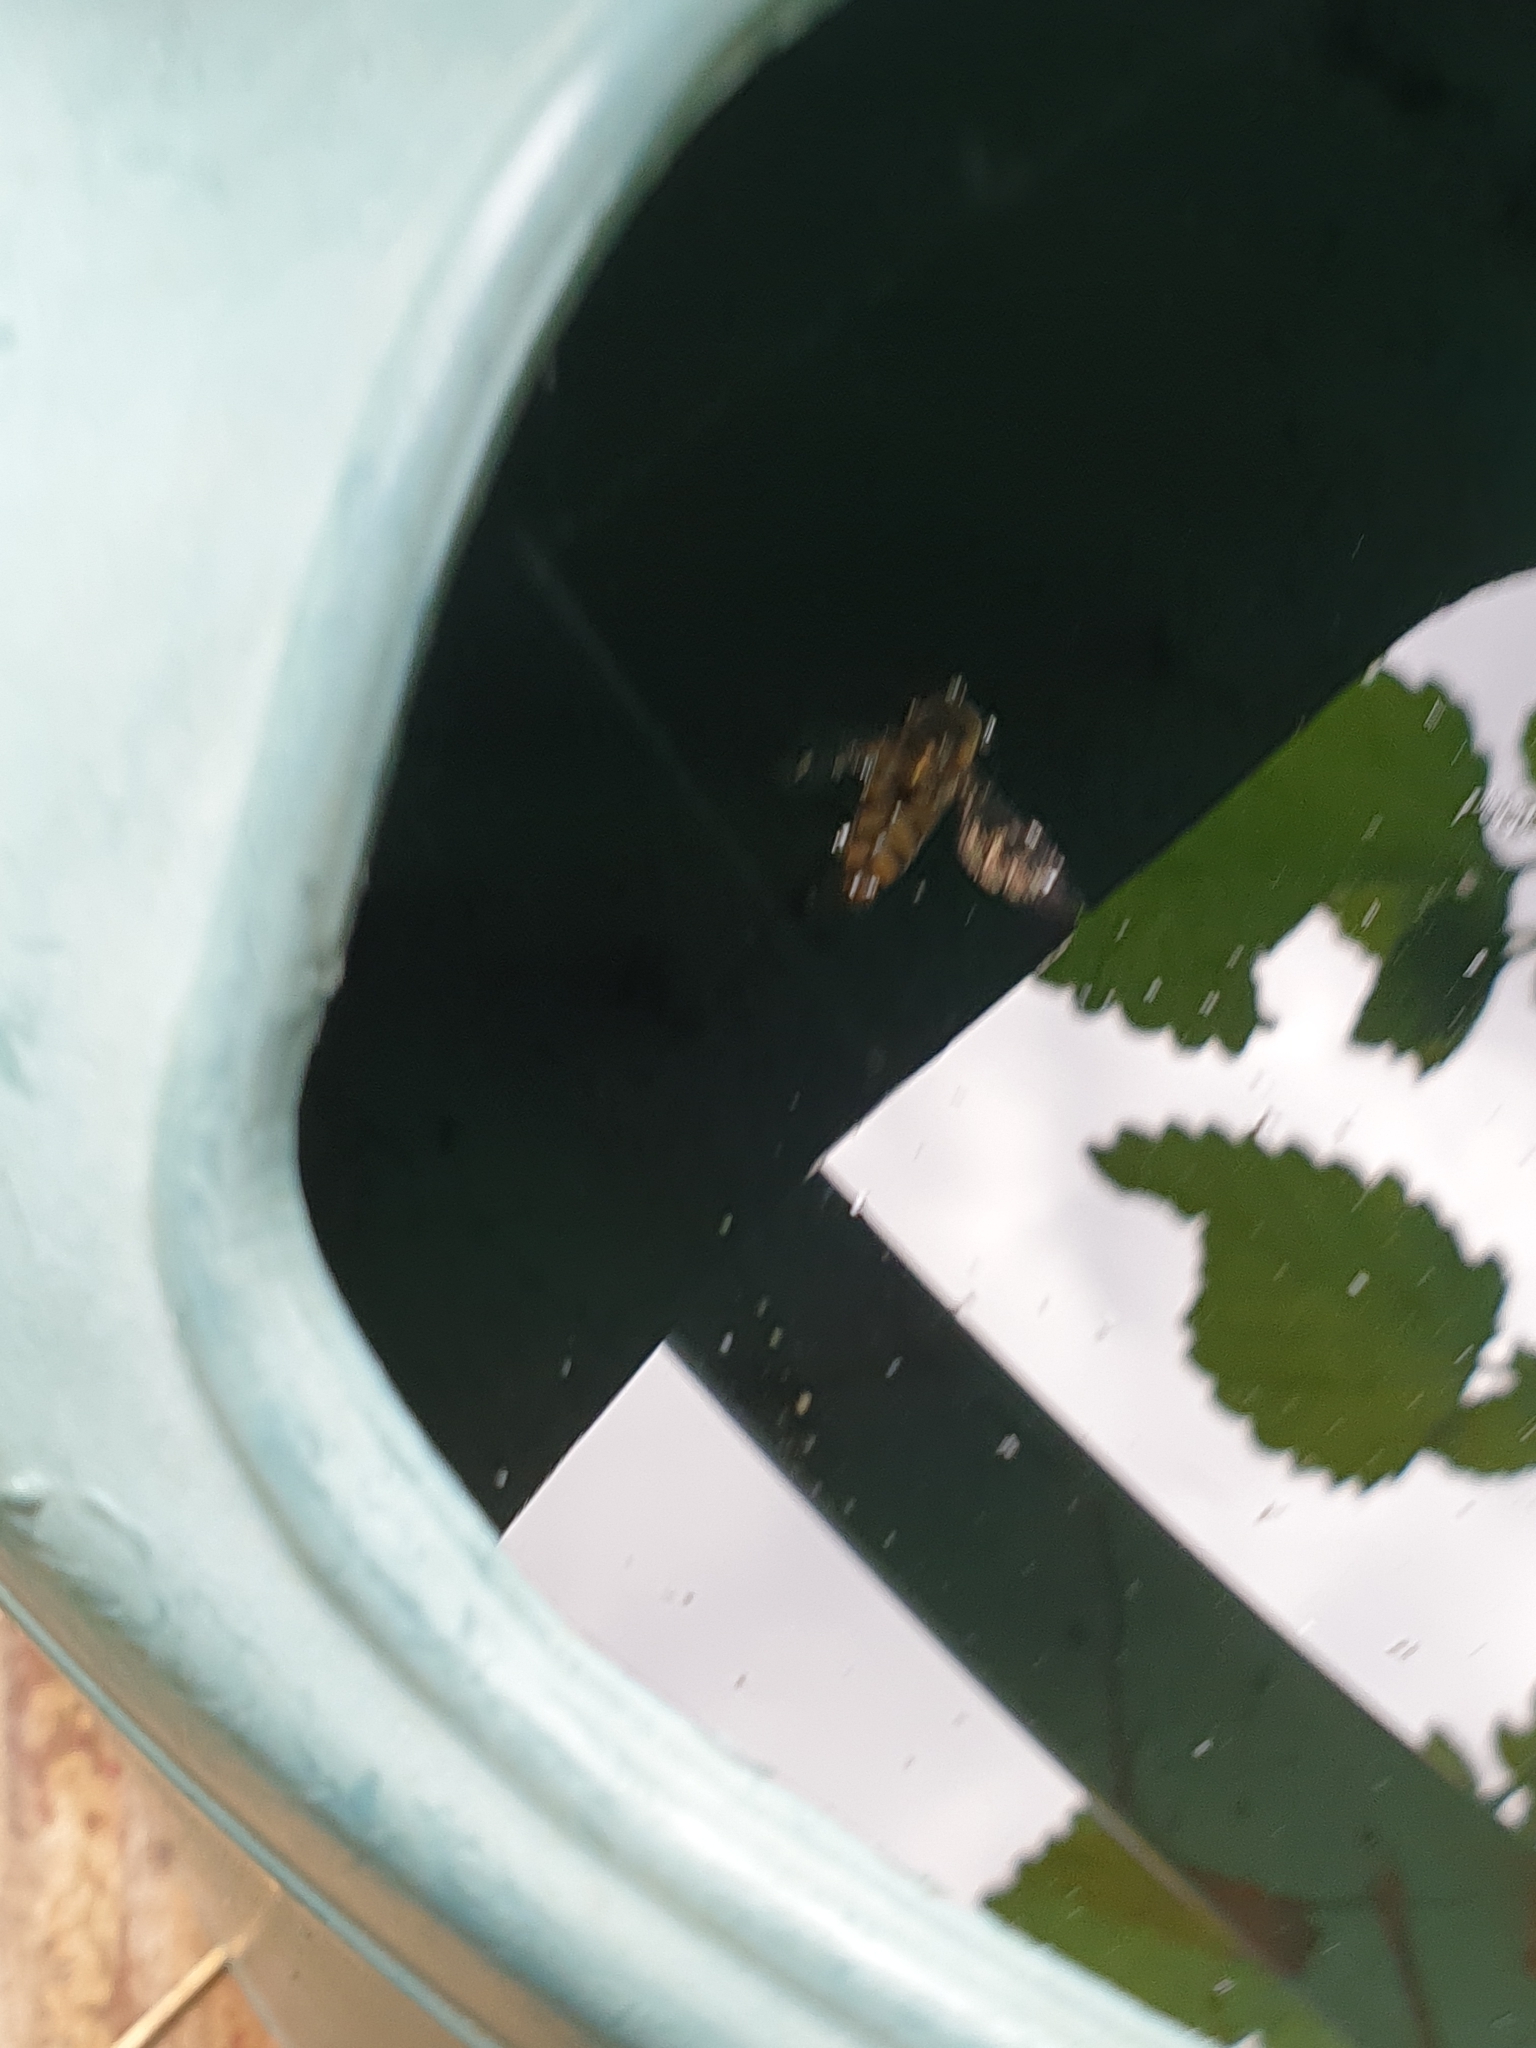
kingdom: Animalia
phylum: Arthropoda
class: Insecta
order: Diptera
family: Syrphidae
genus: Eupeodes
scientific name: Eupeodes
